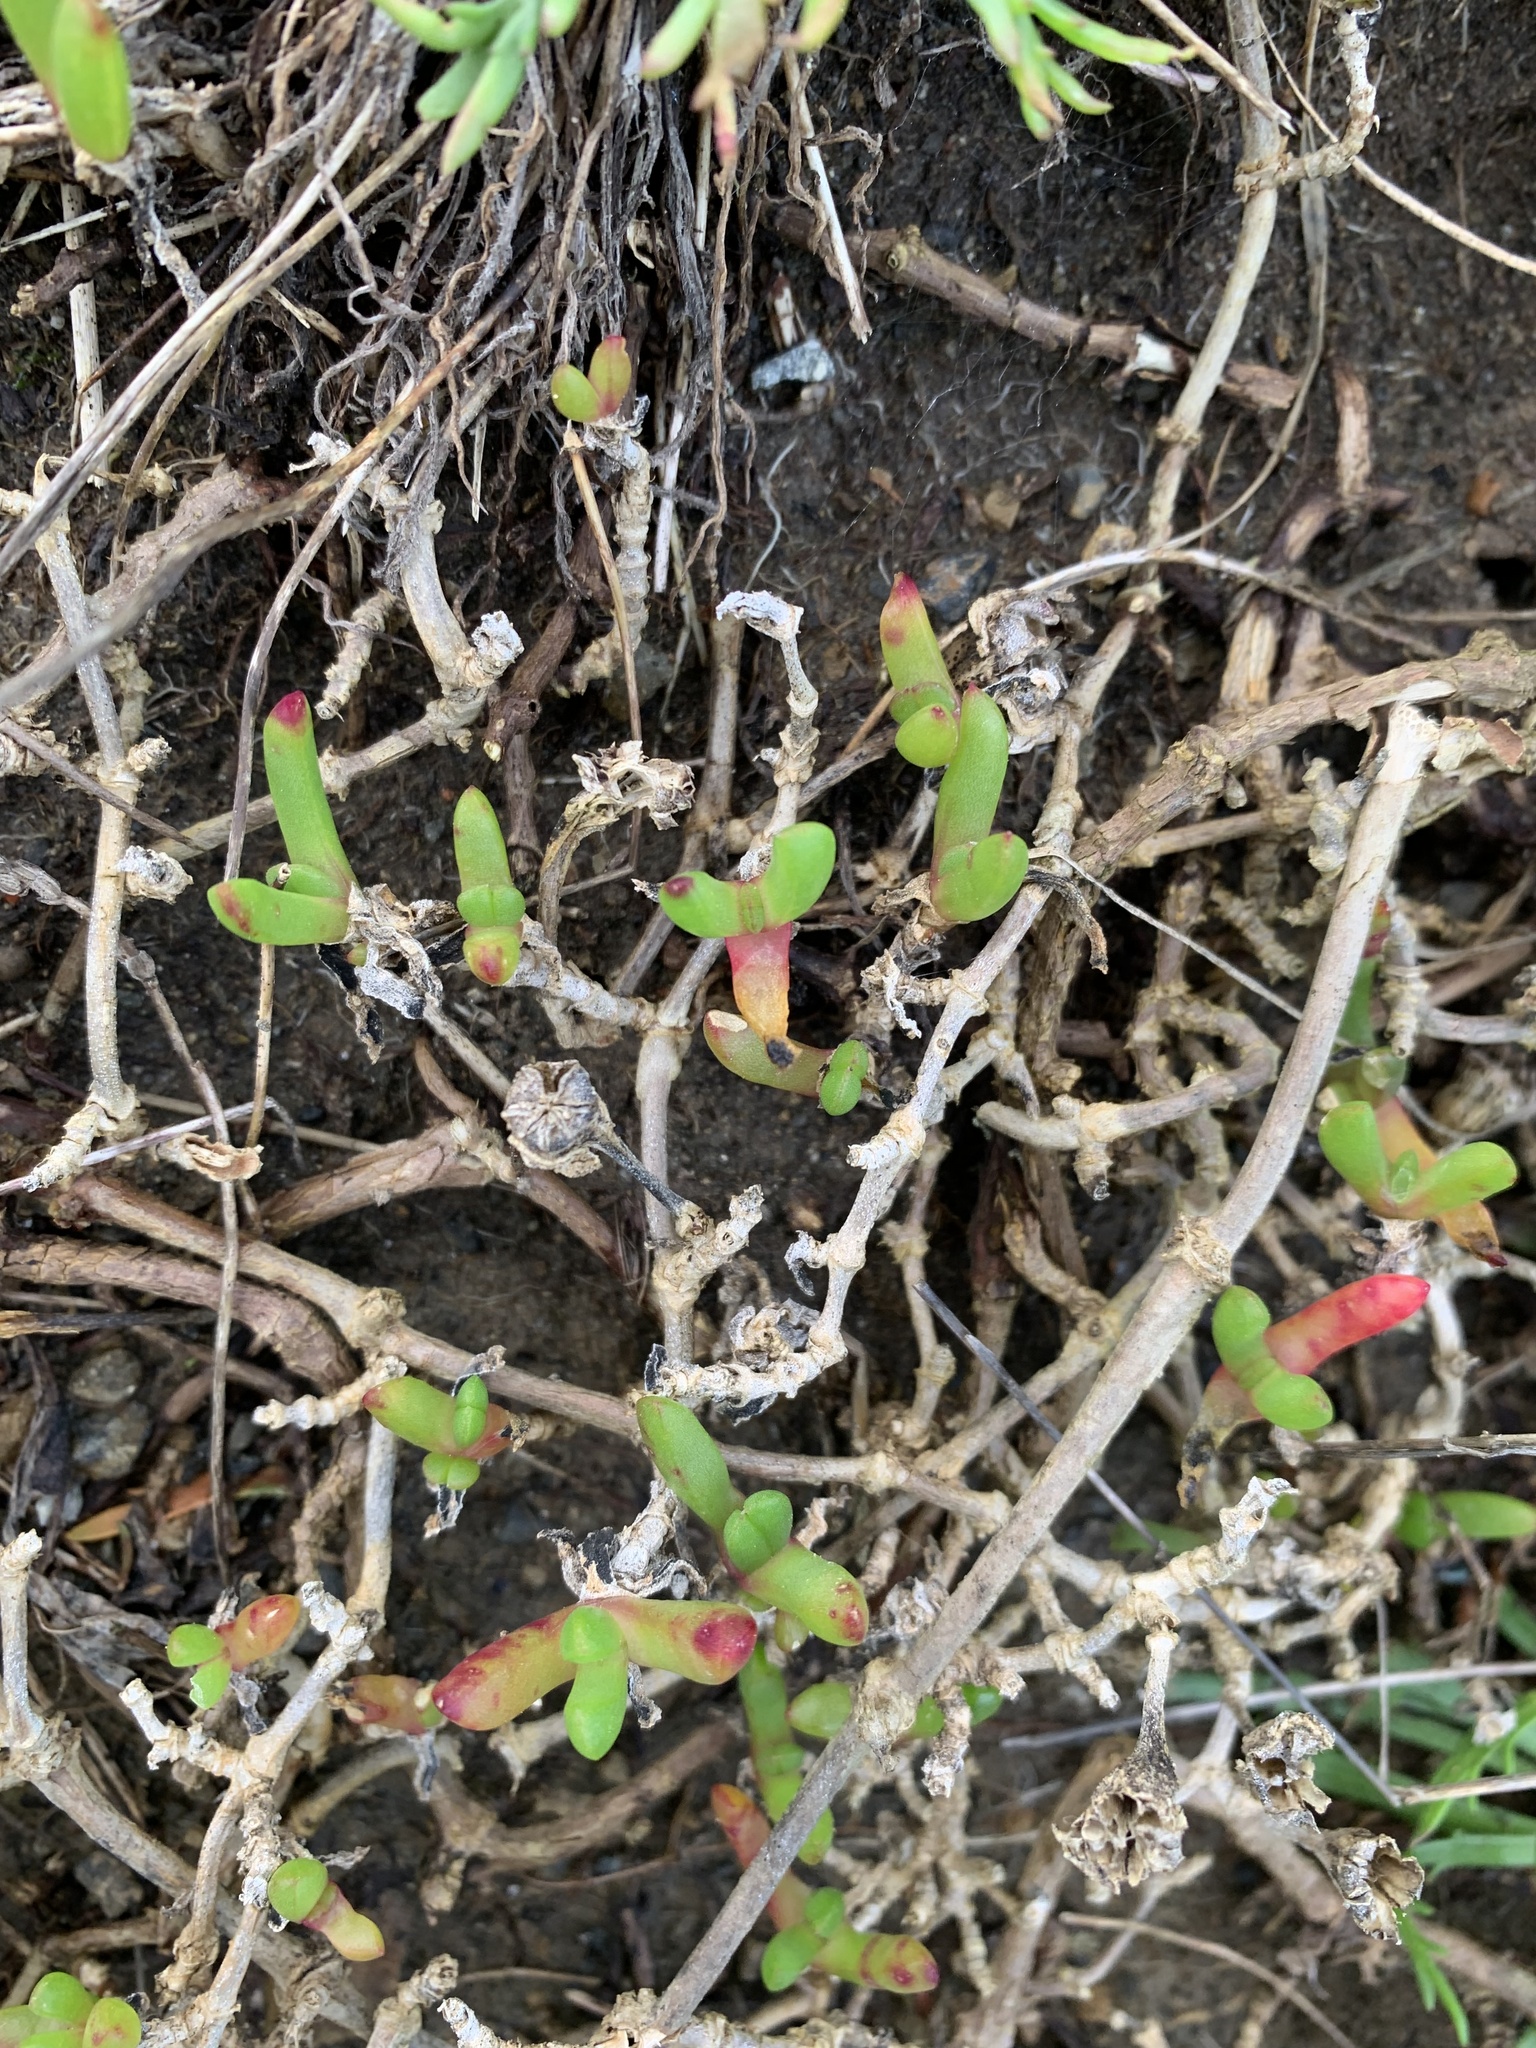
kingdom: Plantae
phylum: Tracheophyta
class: Magnoliopsida
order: Caryophyllales
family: Aizoaceae
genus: Disphyma
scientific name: Disphyma australe
